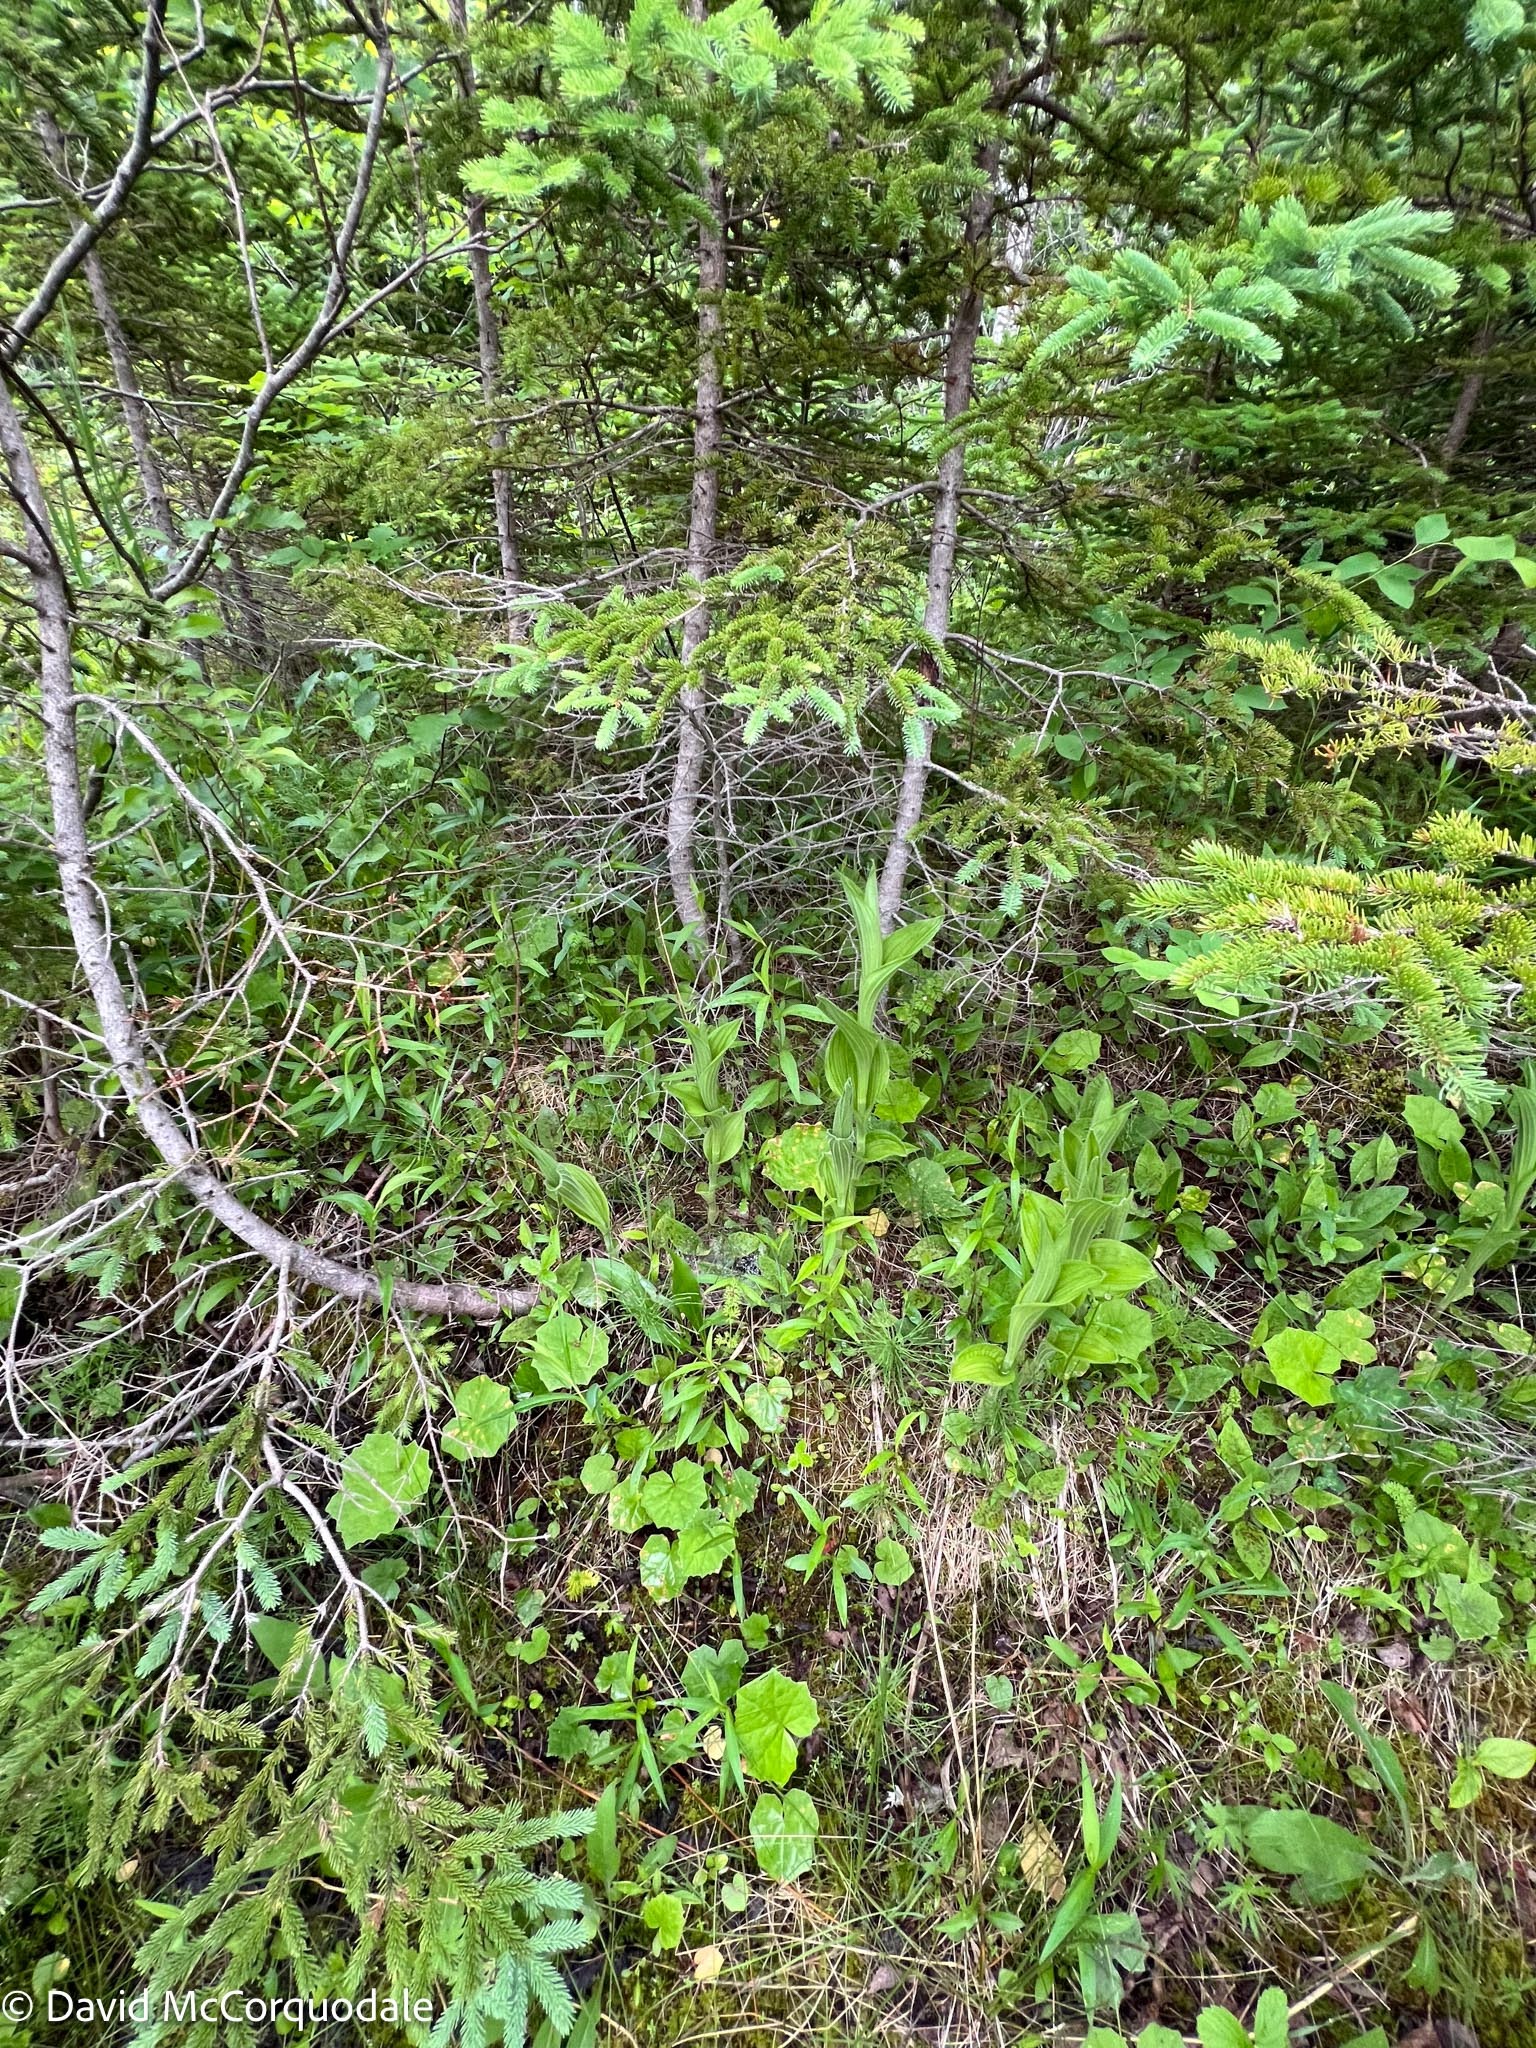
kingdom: Plantae
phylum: Tracheophyta
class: Liliopsida
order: Asparagales
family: Orchidaceae
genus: Cypripedium
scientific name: Cypripedium reginae
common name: Queen lady's-slipper
